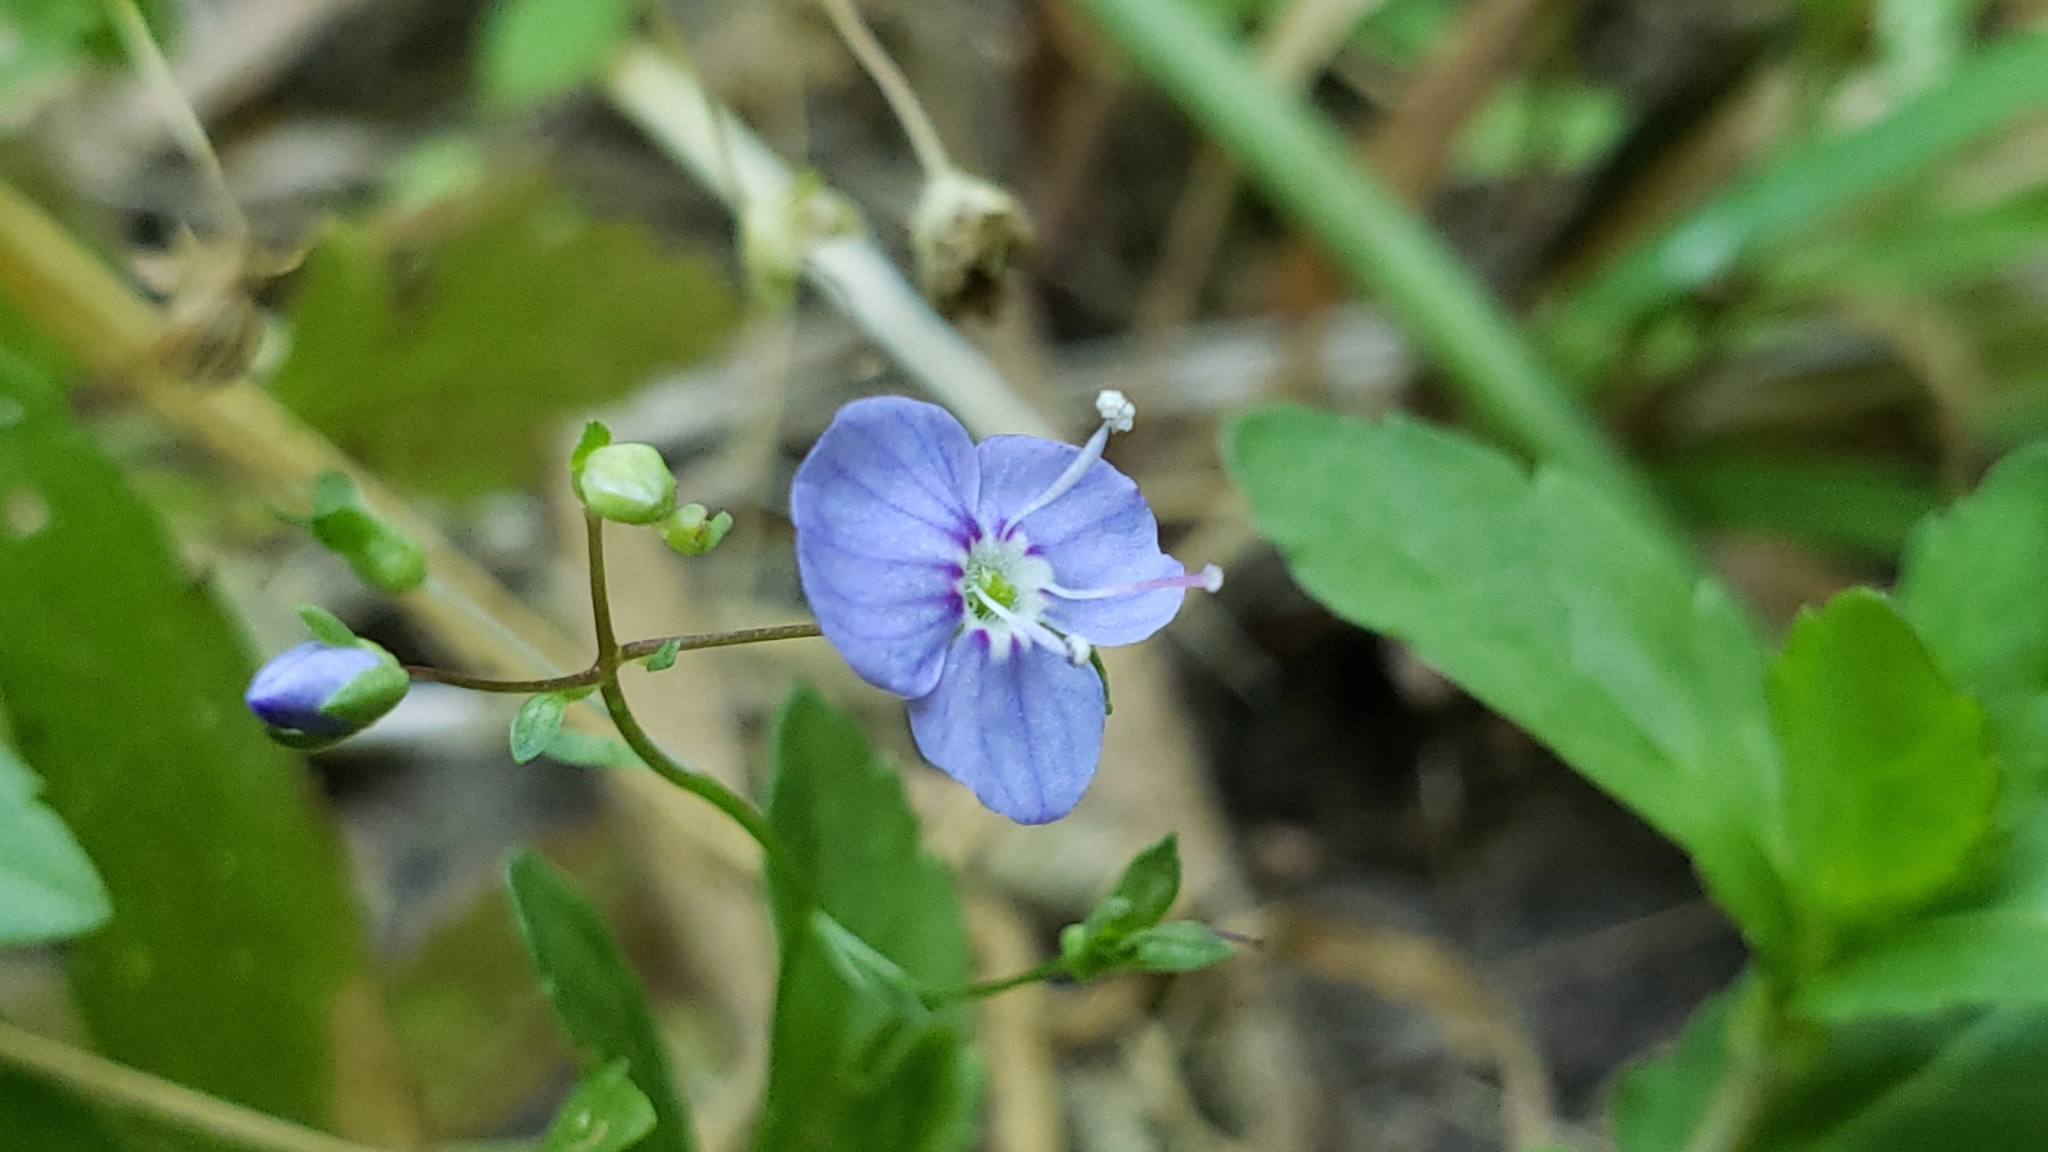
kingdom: Plantae
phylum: Tracheophyta
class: Magnoliopsida
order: Lamiales
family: Plantaginaceae
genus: Veronica
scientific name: Veronica americana
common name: American brooklime
